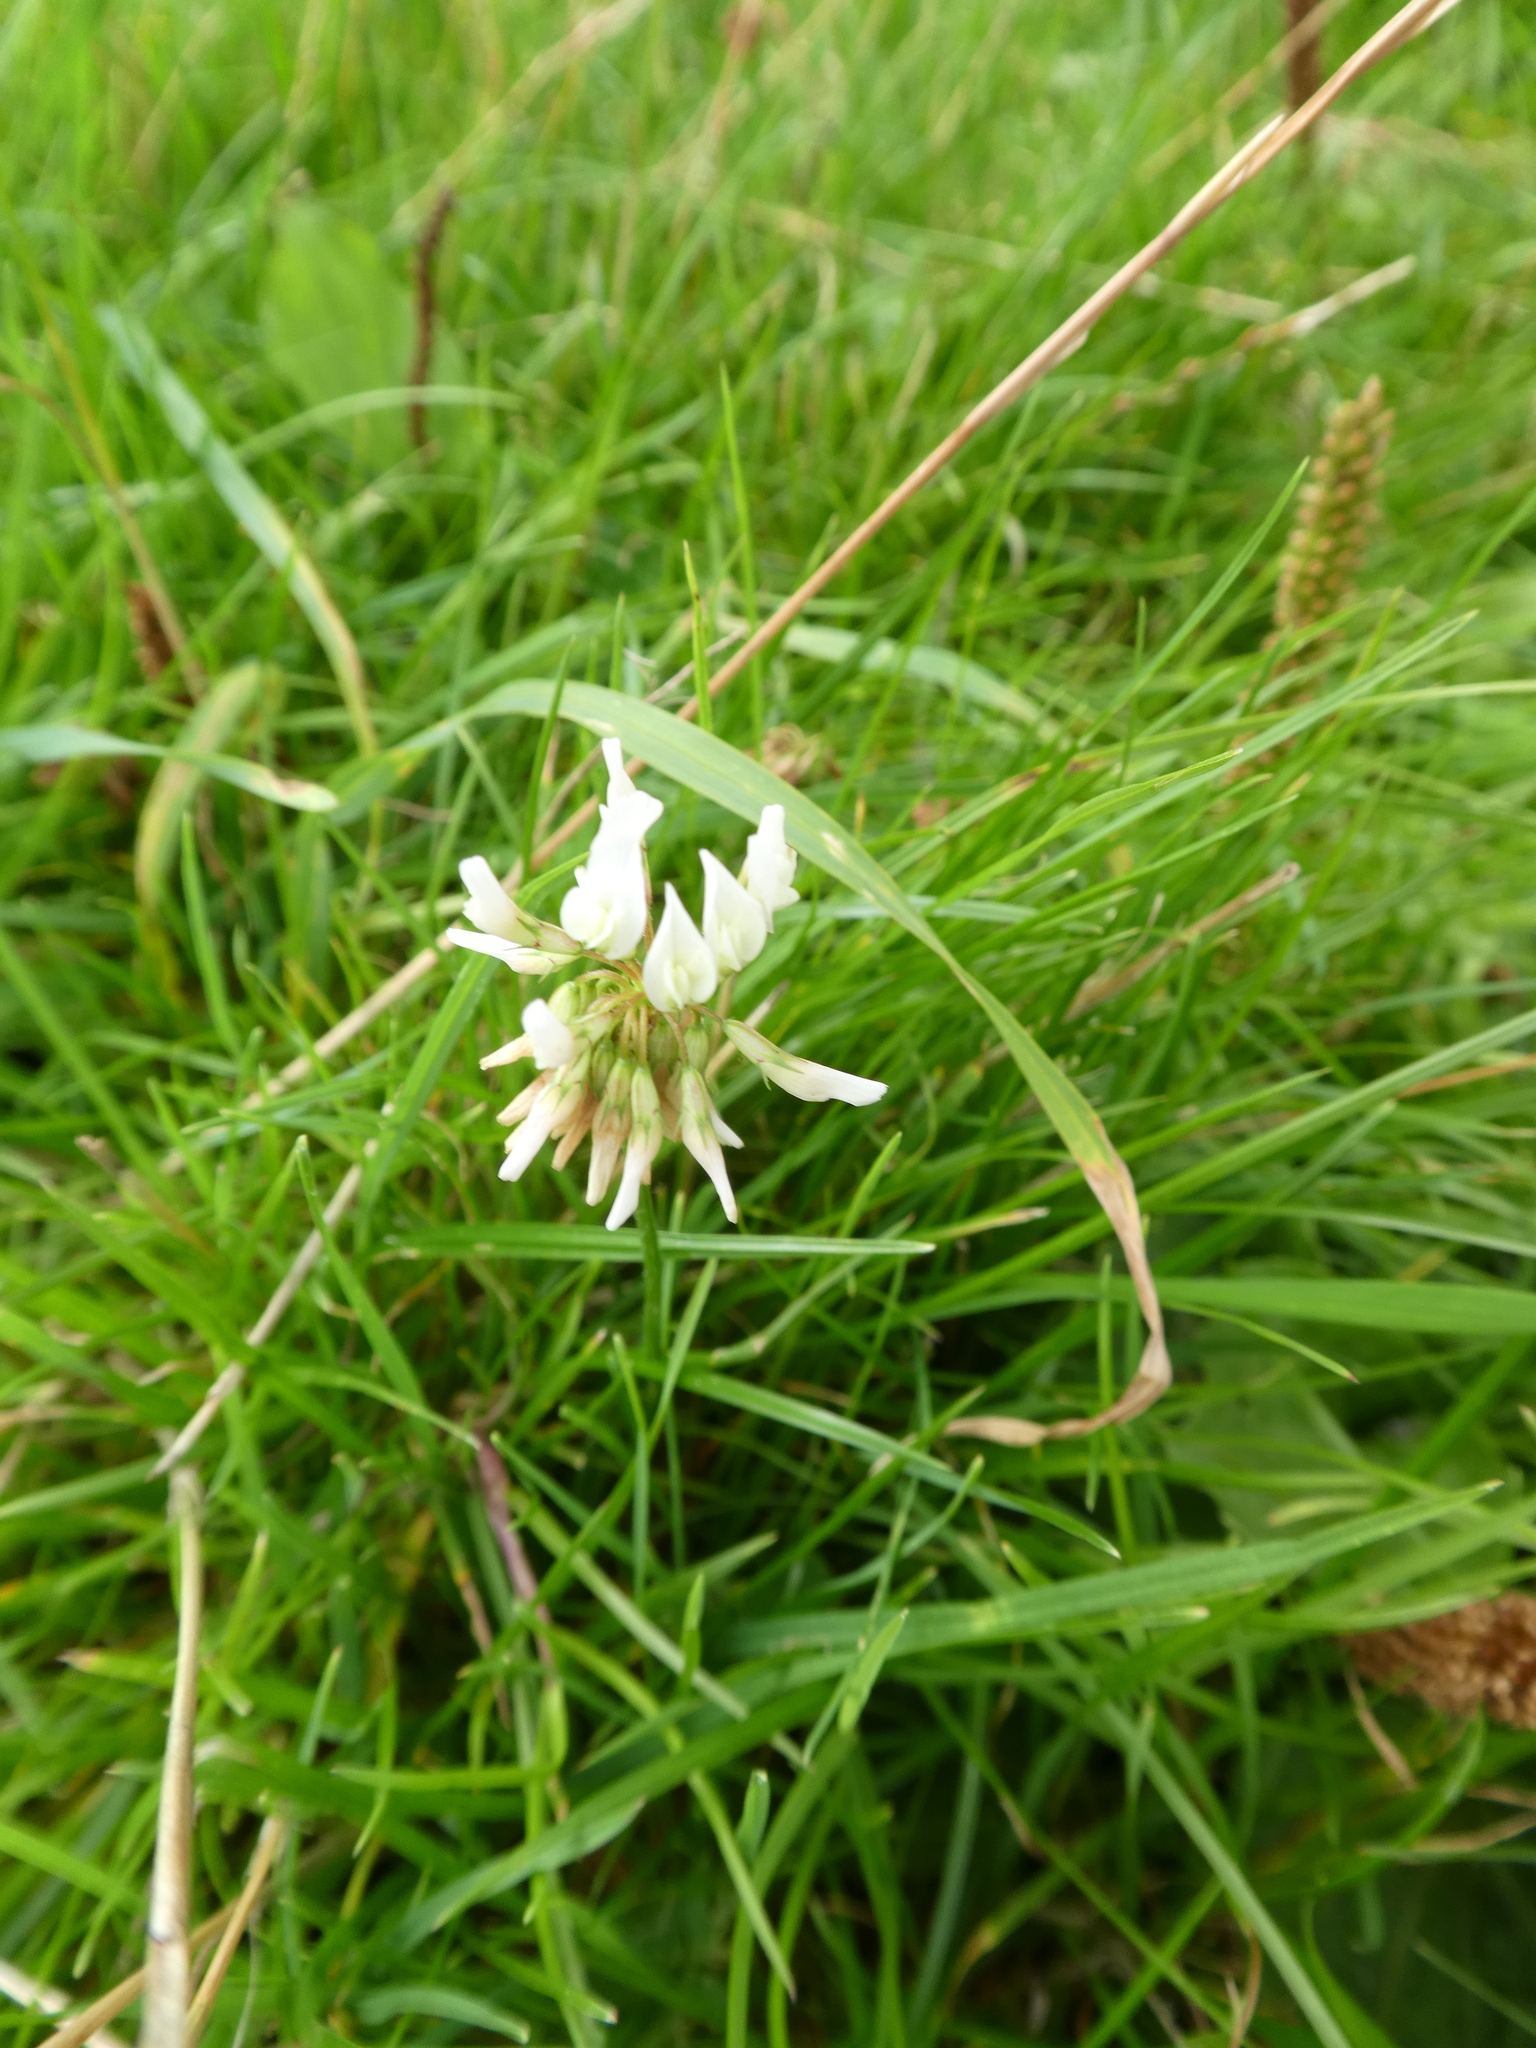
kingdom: Plantae
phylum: Tracheophyta
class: Magnoliopsida
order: Fabales
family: Fabaceae
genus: Trifolium
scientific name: Trifolium repens
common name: White clover
